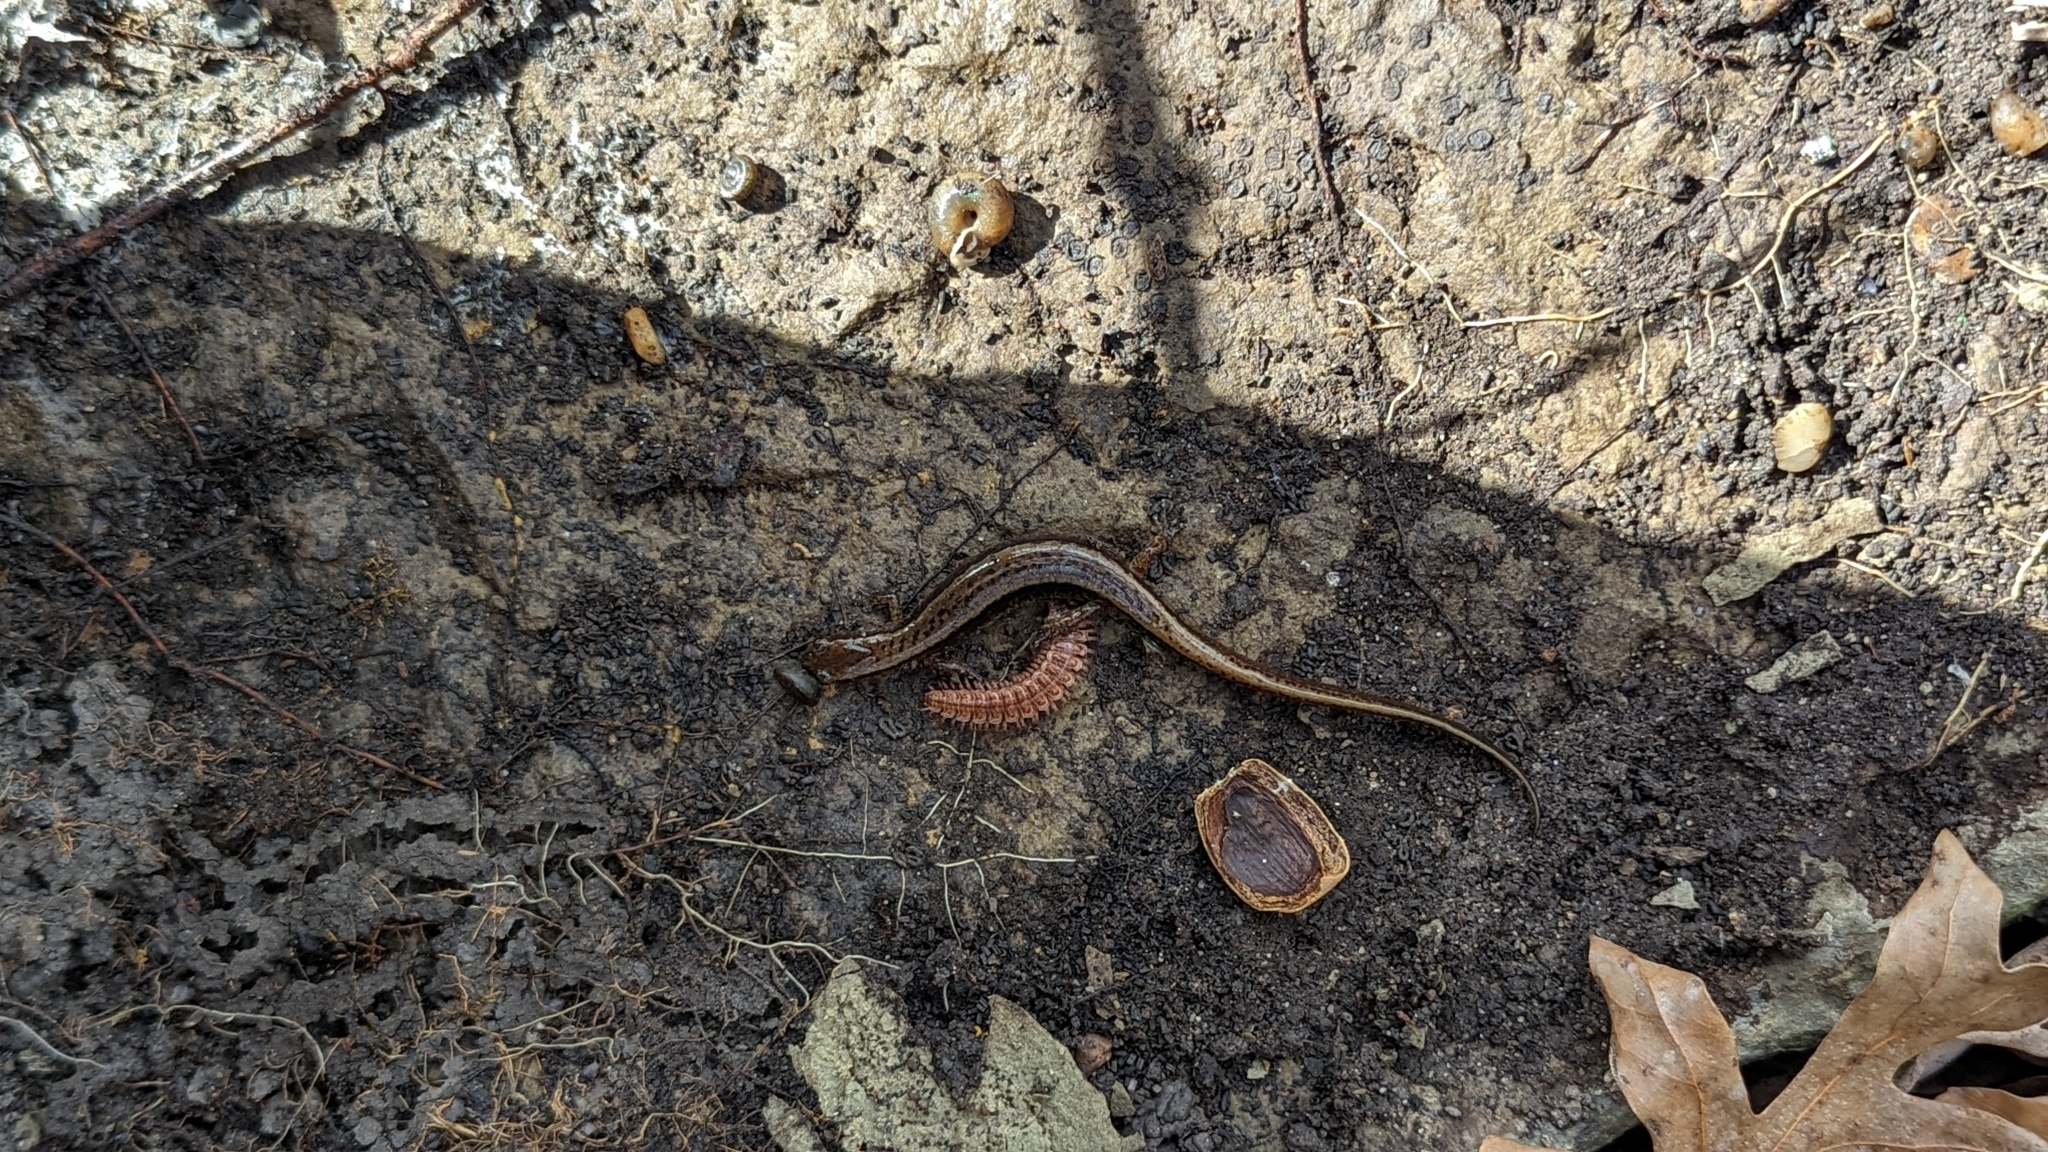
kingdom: Animalia
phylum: Chordata
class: Amphibia
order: Caudata
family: Plethodontidae
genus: Eurycea
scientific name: Eurycea cirrigera
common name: Southern two-lined salamander
